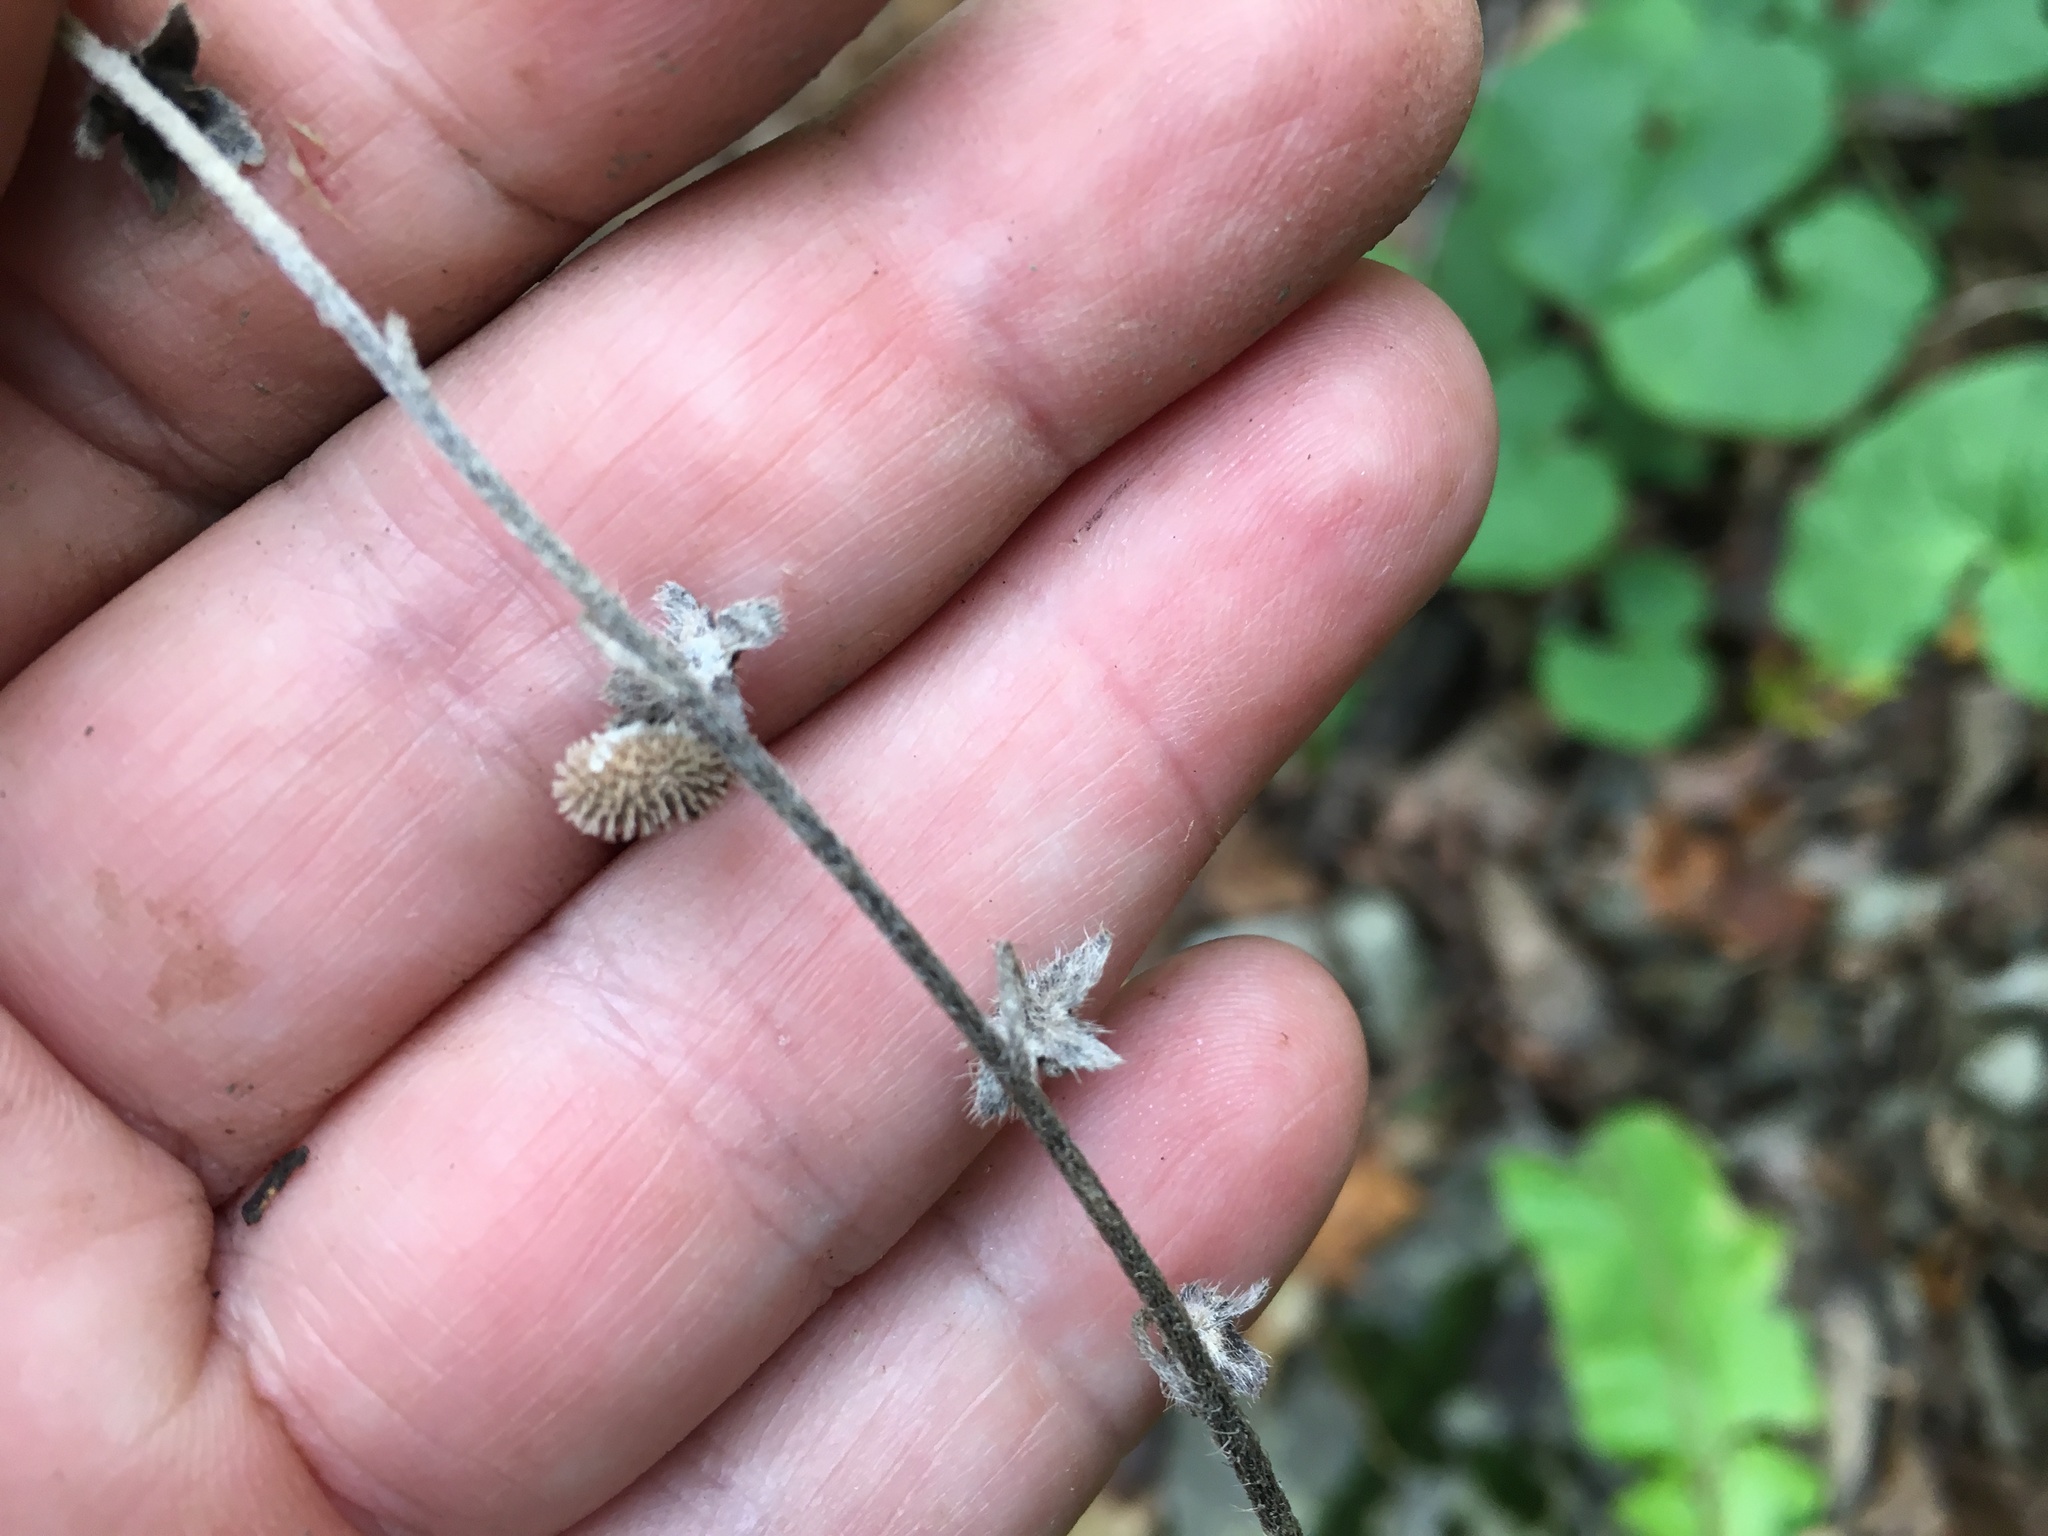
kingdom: Plantae
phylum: Tracheophyta
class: Magnoliopsida
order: Boraginales
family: Boraginaceae
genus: Andersonglossum
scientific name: Andersonglossum virginianum
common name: Wild comfrey
